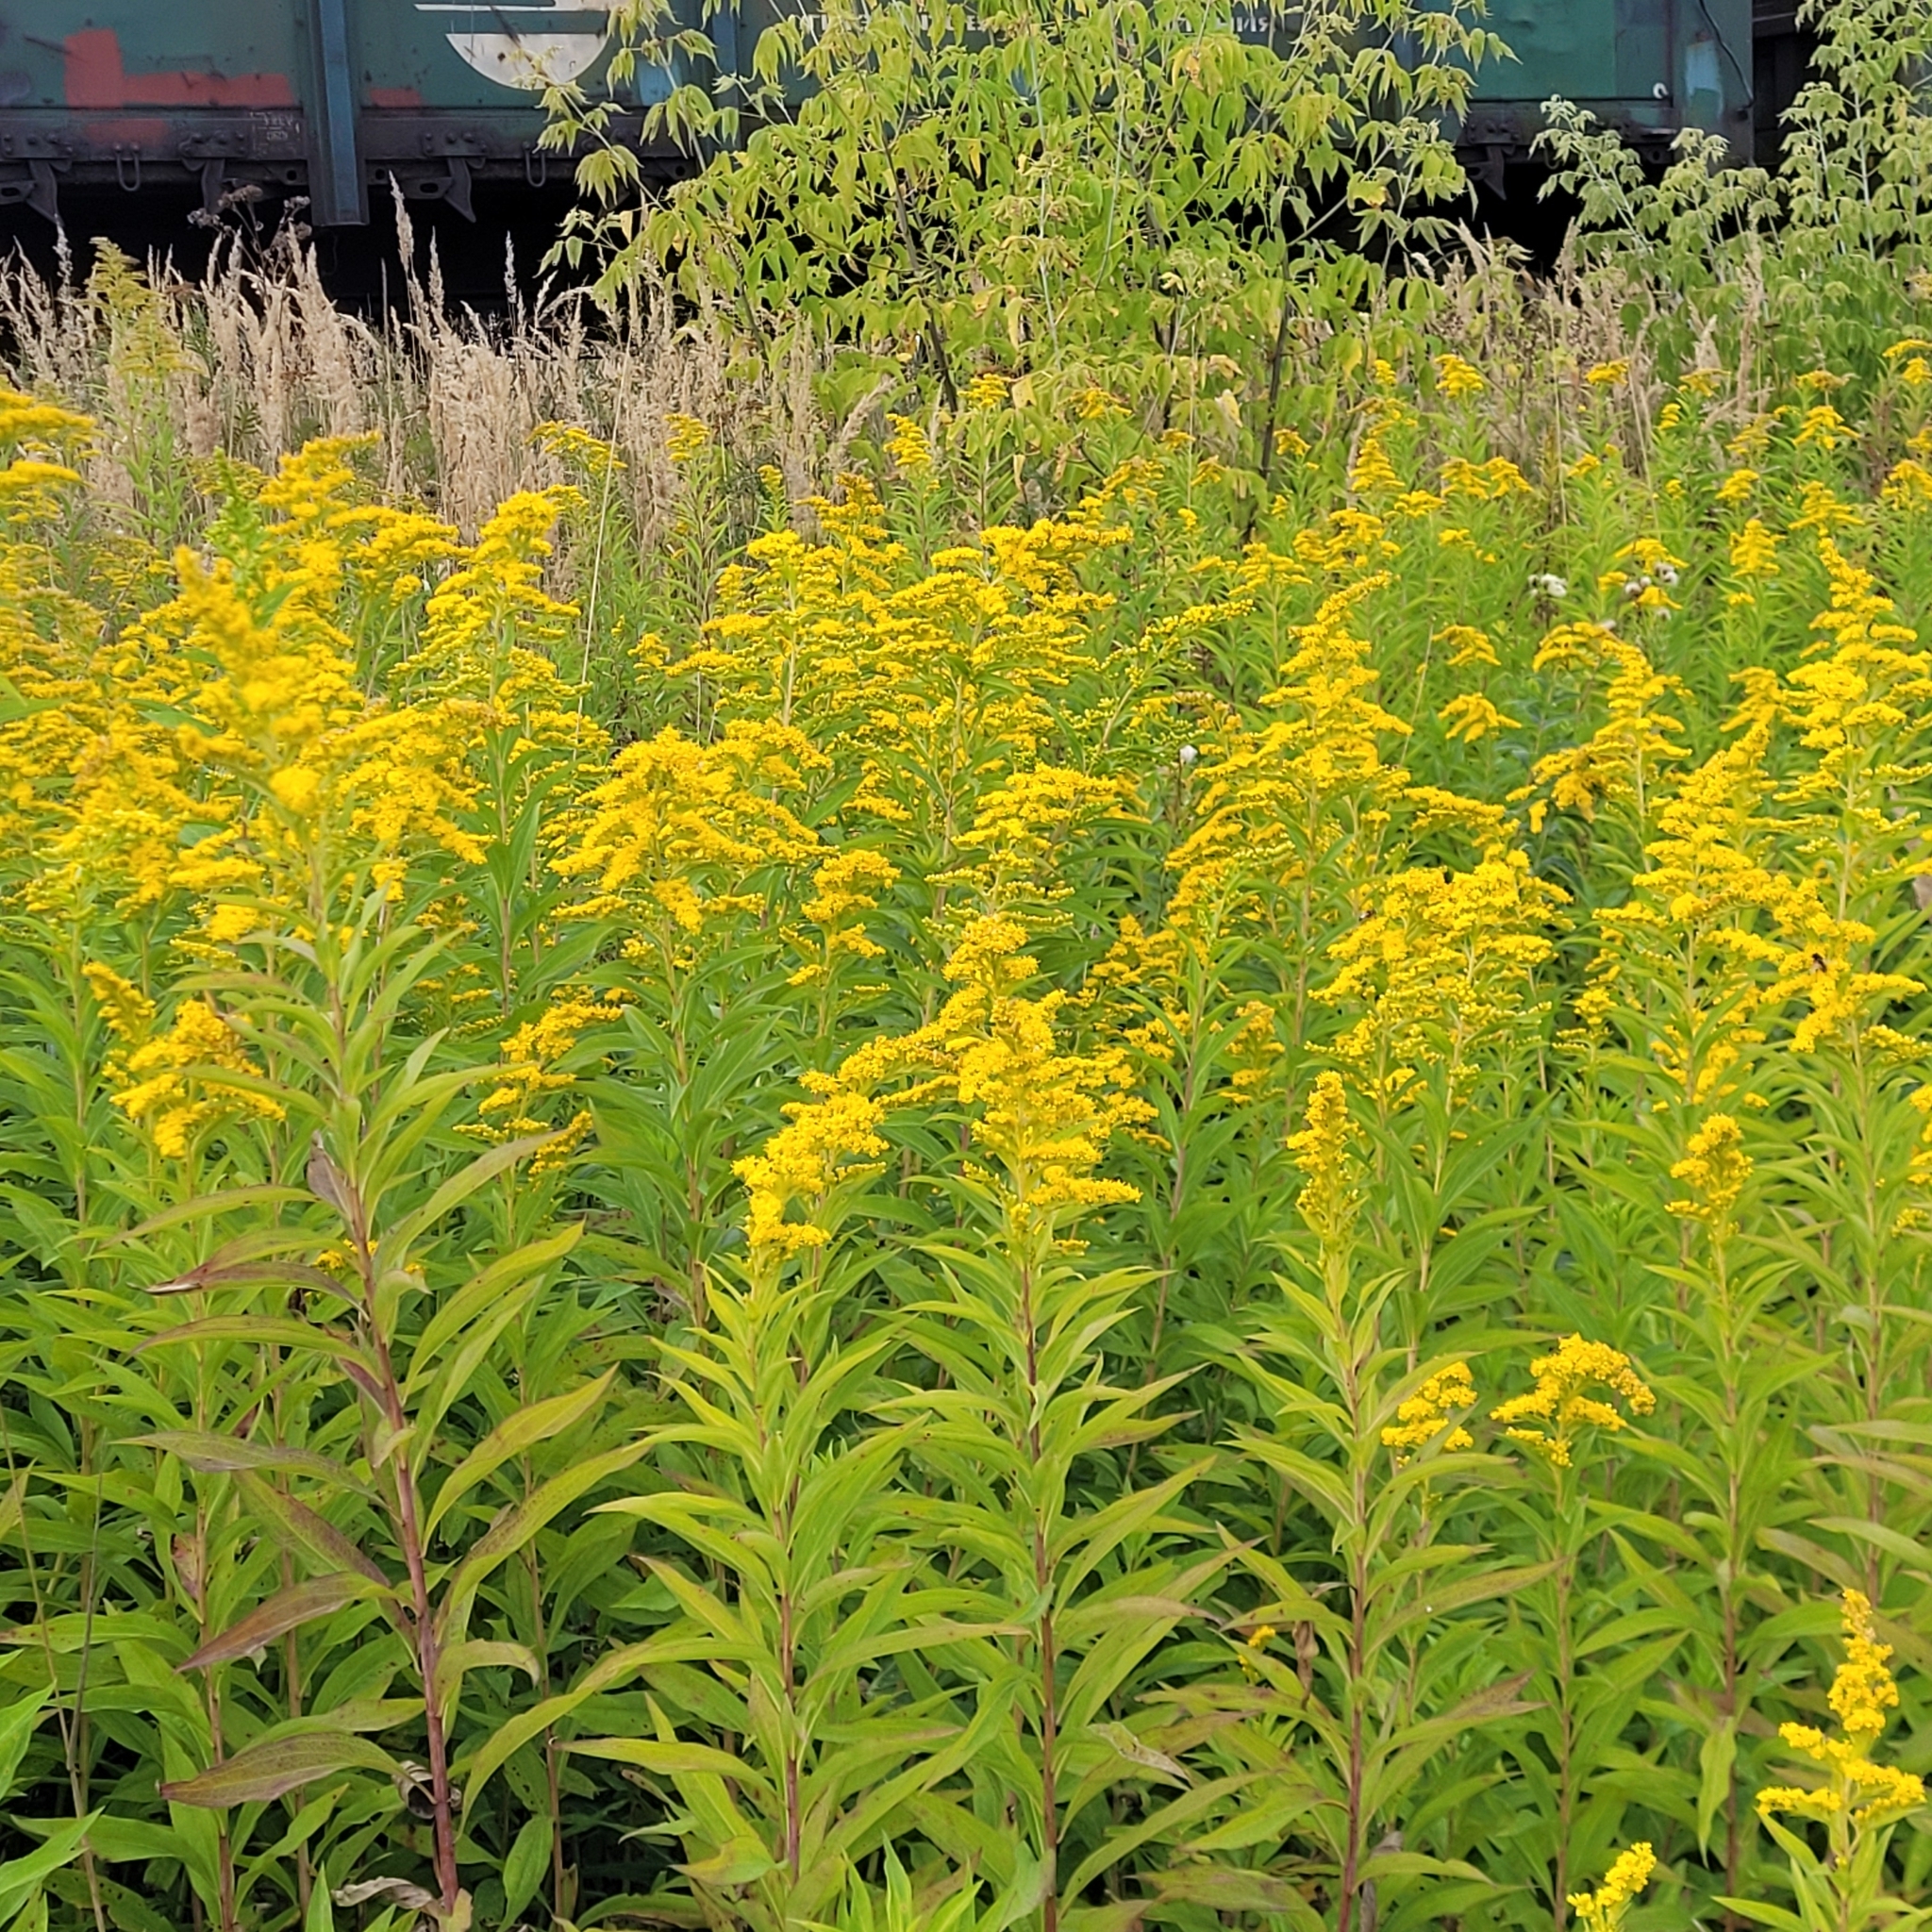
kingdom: Plantae
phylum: Tracheophyta
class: Magnoliopsida
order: Asterales
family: Asteraceae
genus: Solidago
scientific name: Solidago gigantea
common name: Giant goldenrod
